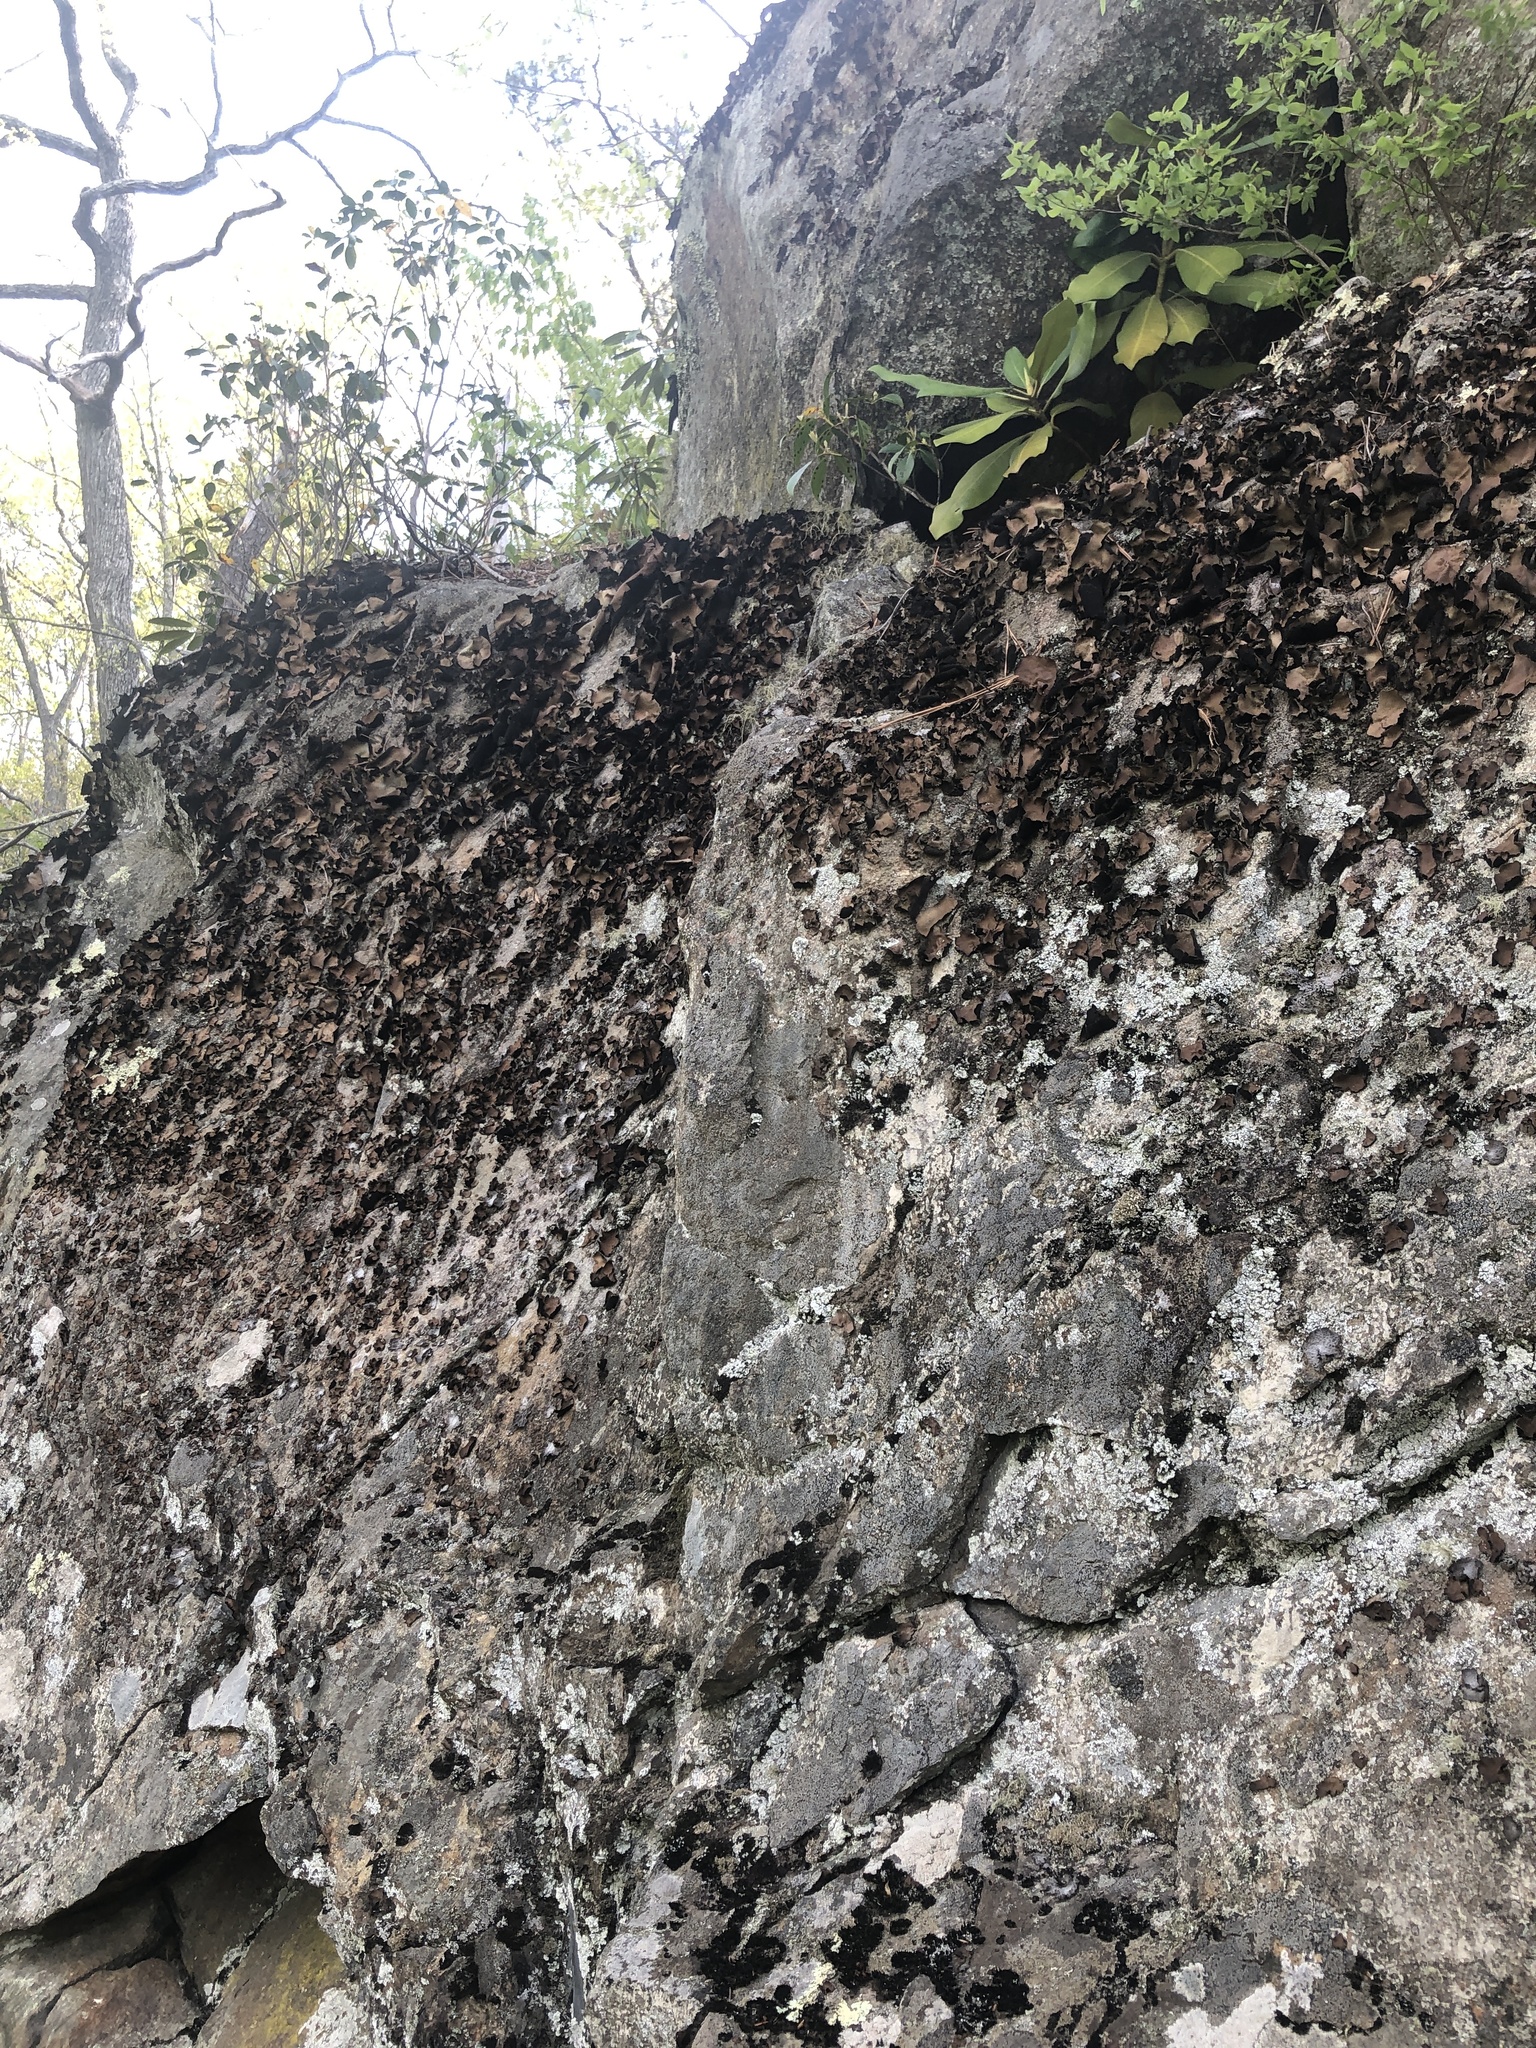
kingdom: Fungi
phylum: Ascomycota
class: Lecanoromycetes
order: Umbilicariales
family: Umbilicariaceae
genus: Umbilicaria
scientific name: Umbilicaria mammulata
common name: Smooth rock tripe
